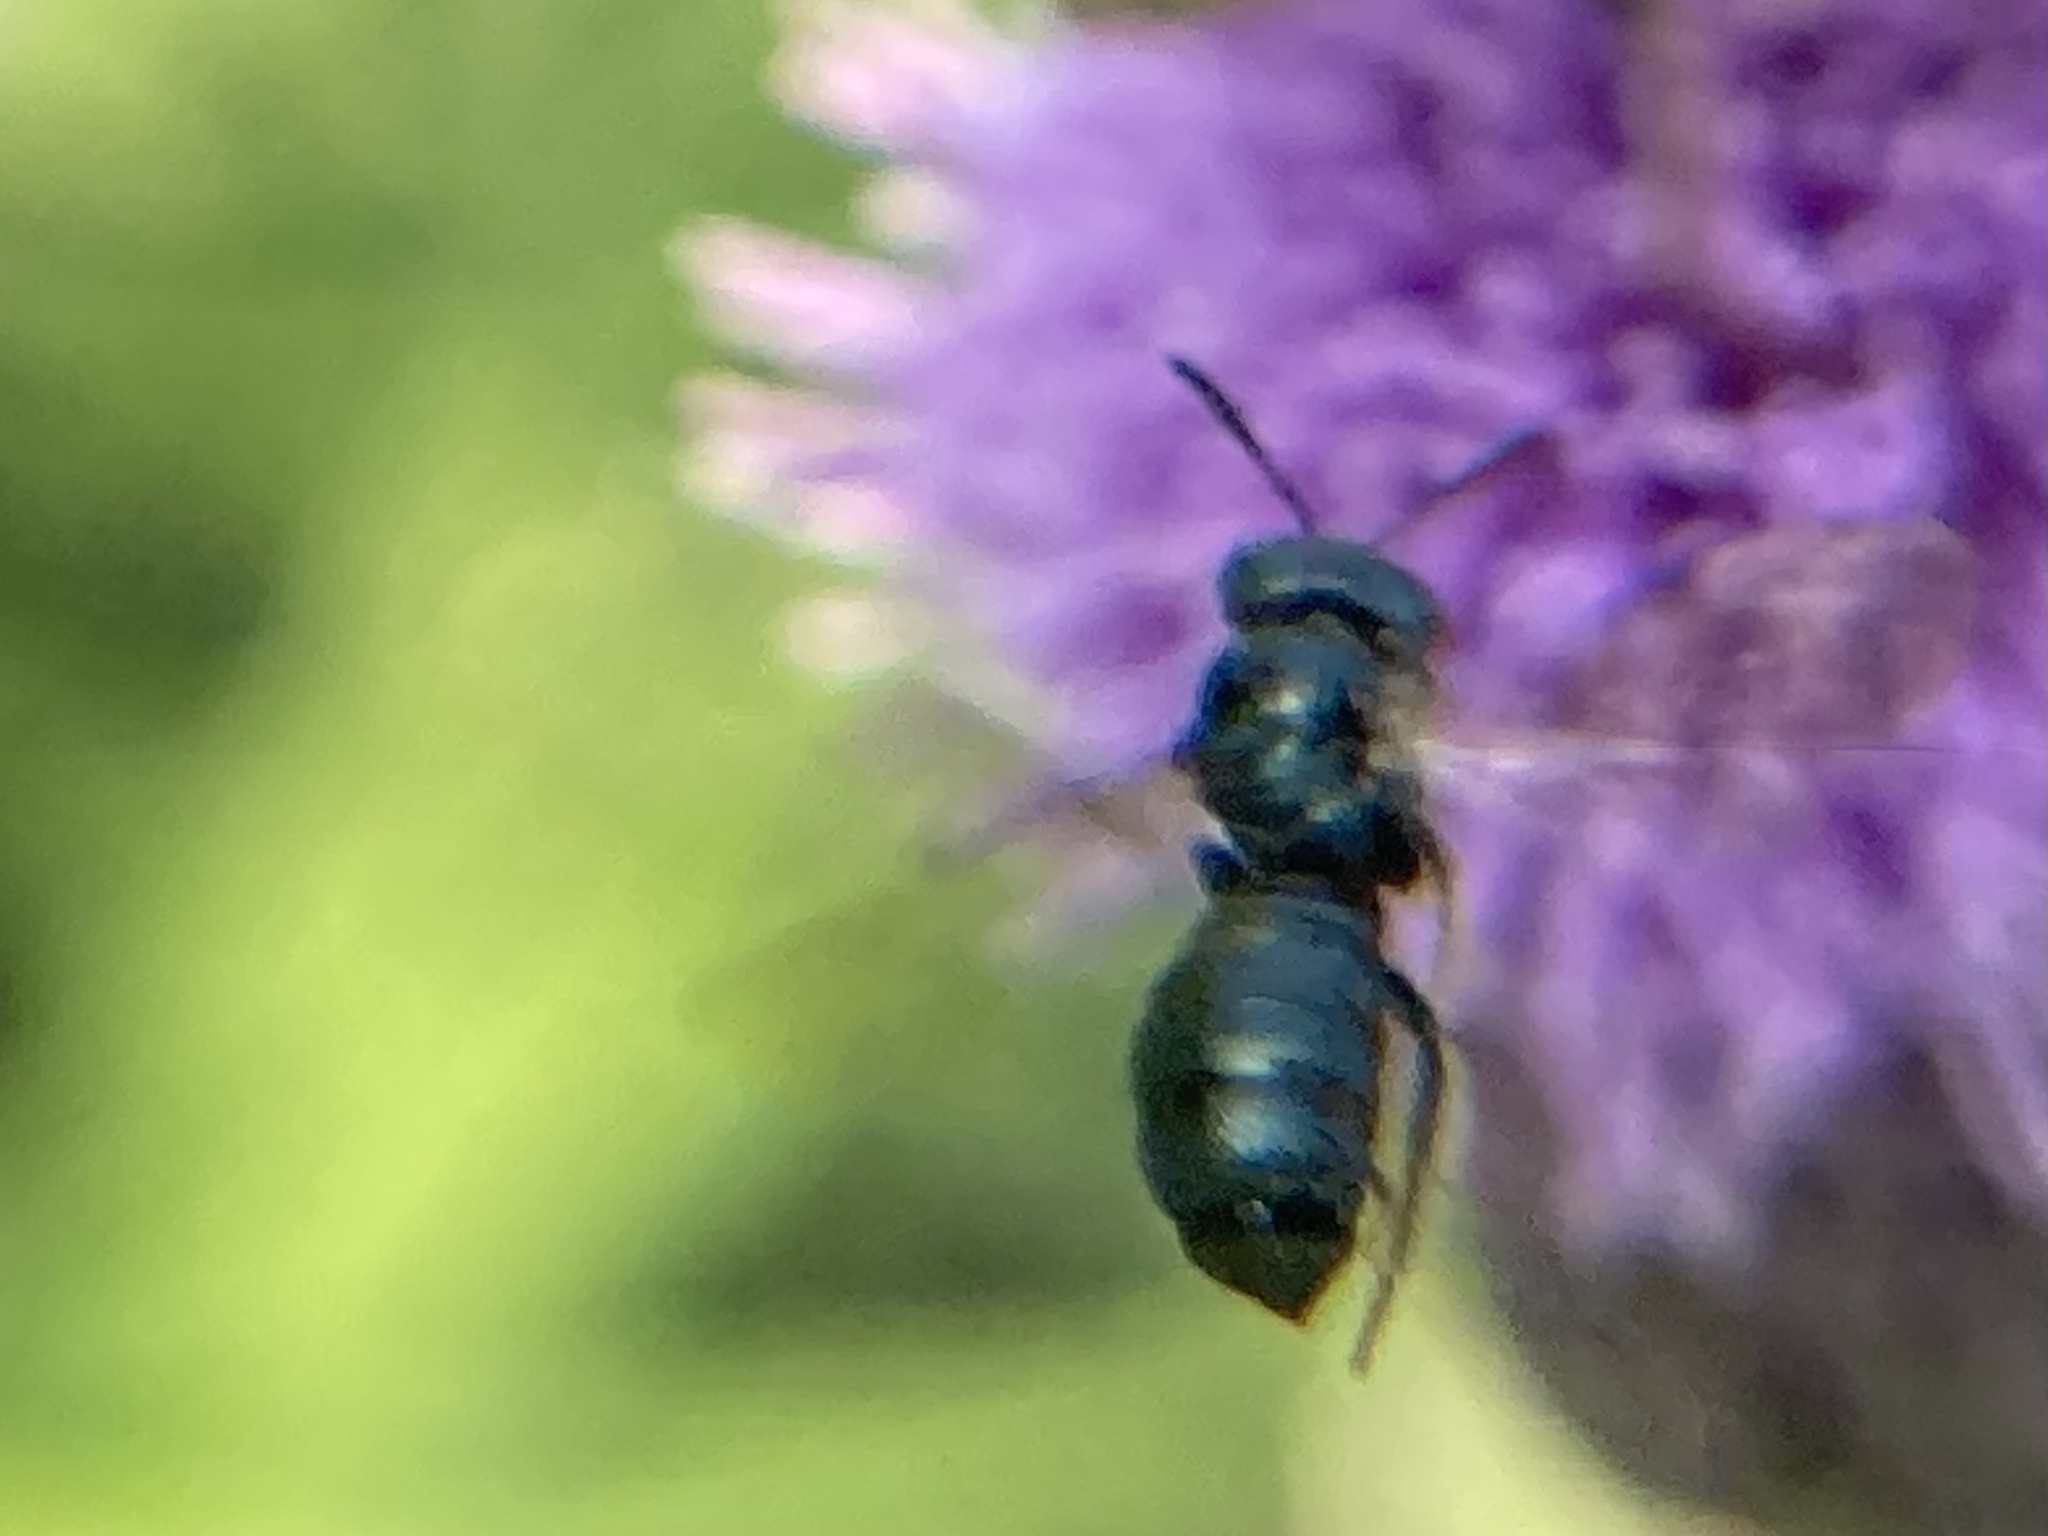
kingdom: Animalia
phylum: Arthropoda
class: Insecta
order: Hymenoptera
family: Apidae
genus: Zadontomerus
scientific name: Zadontomerus
